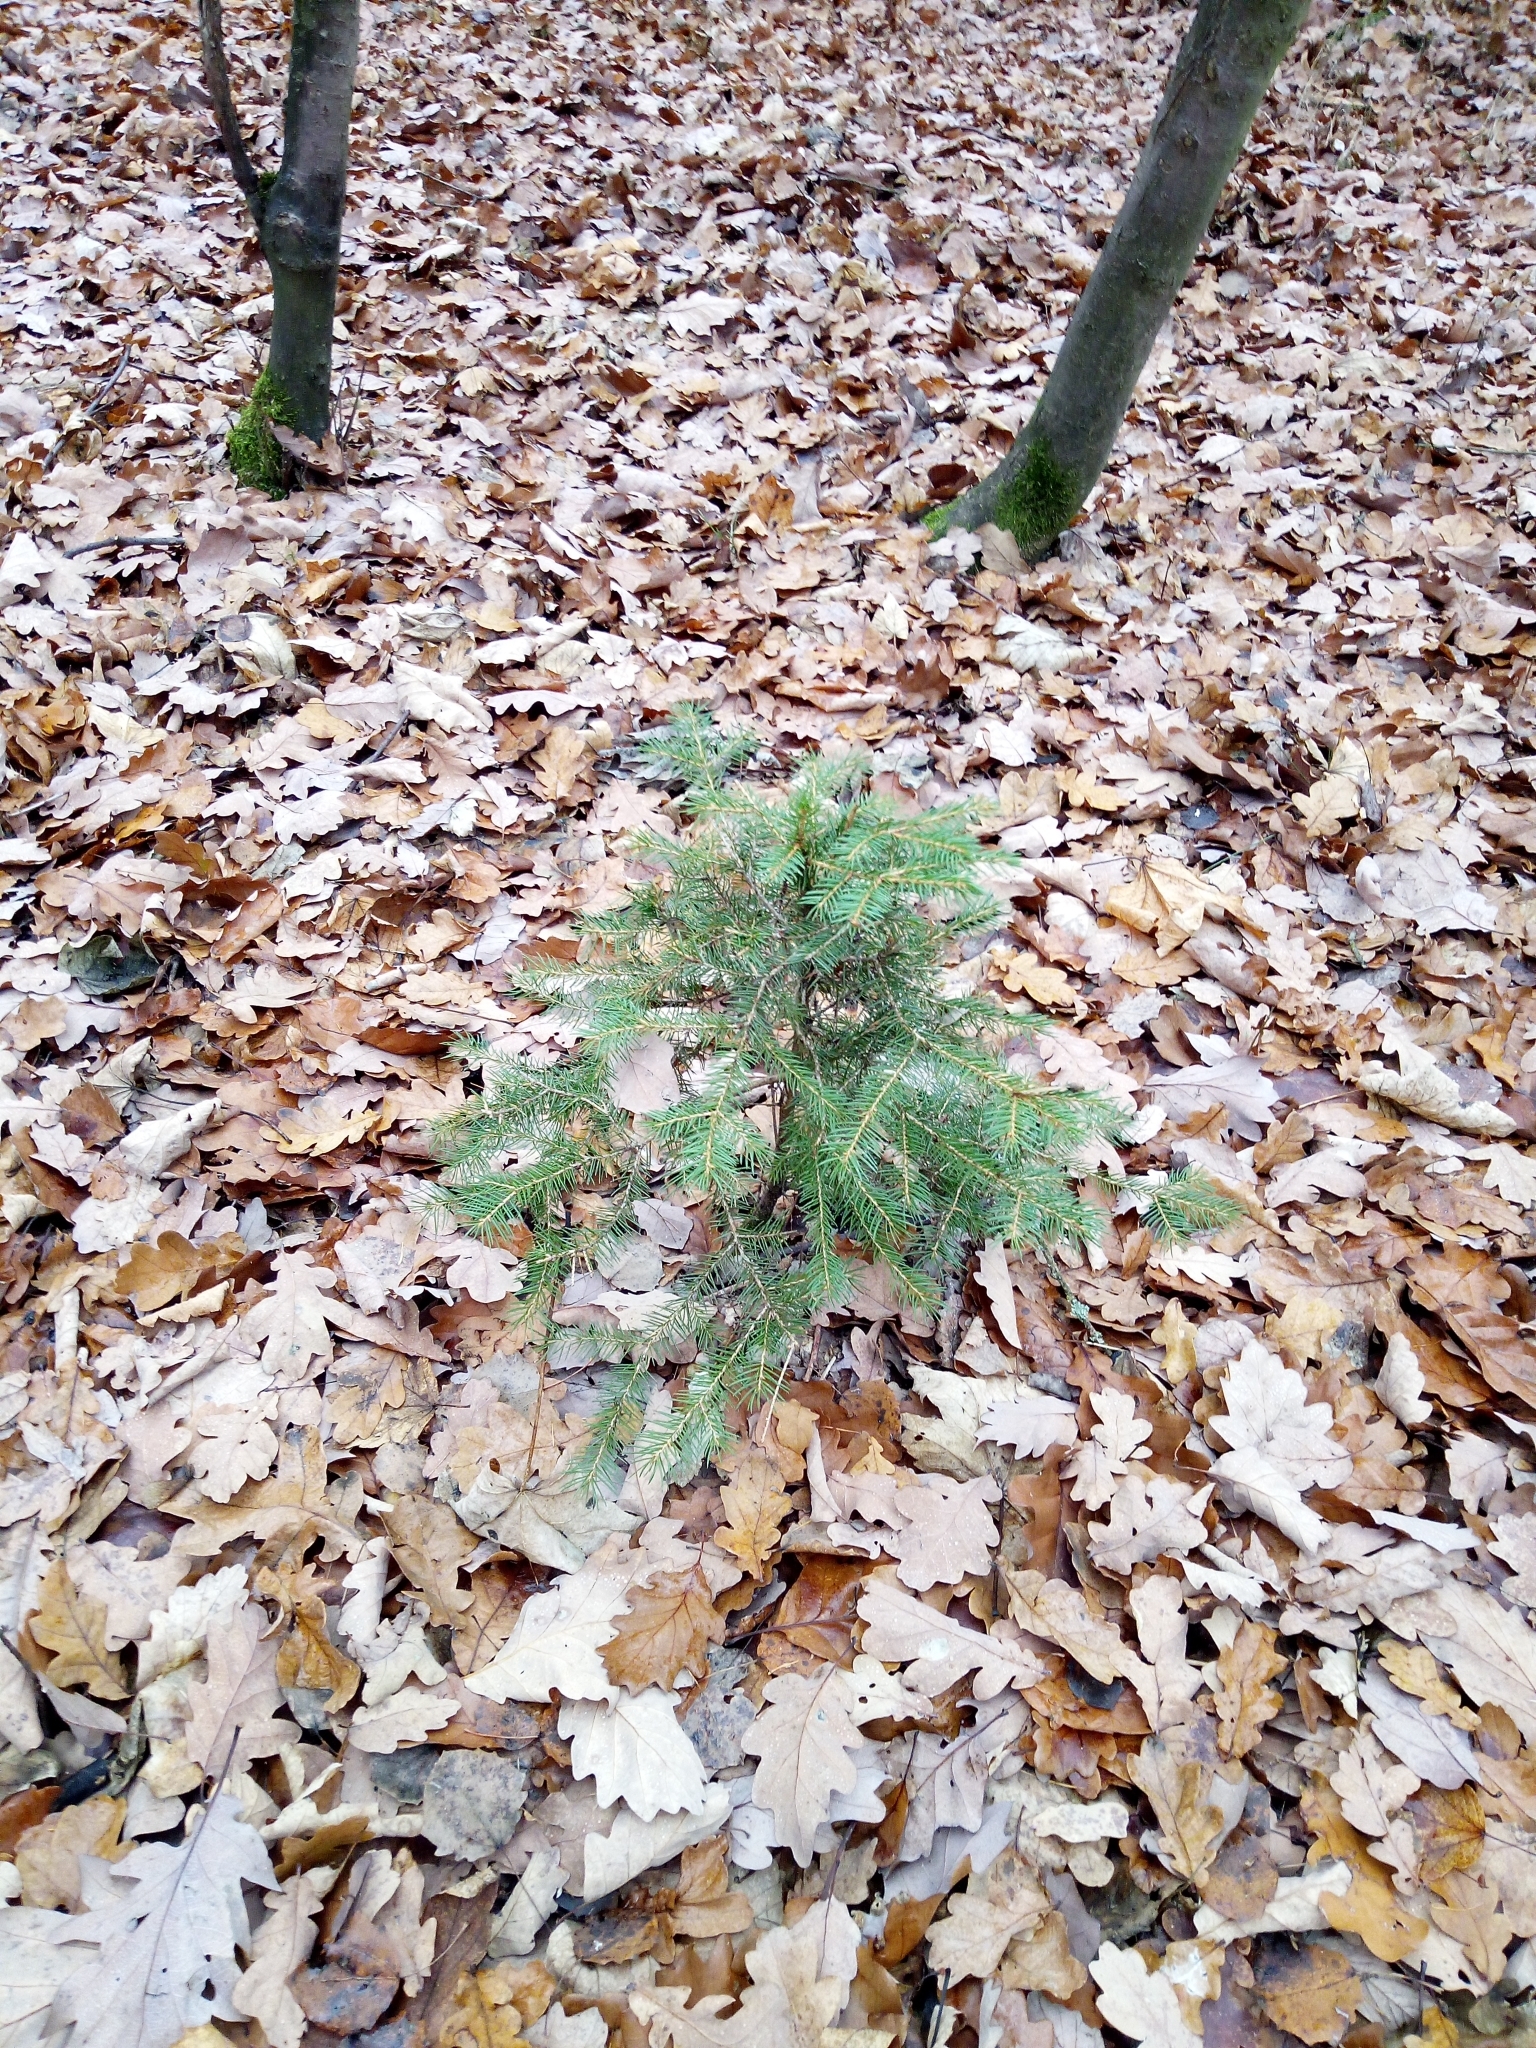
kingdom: Plantae
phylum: Tracheophyta
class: Pinopsida
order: Pinales
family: Pinaceae
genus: Picea
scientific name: Picea abies
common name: Norway spruce
